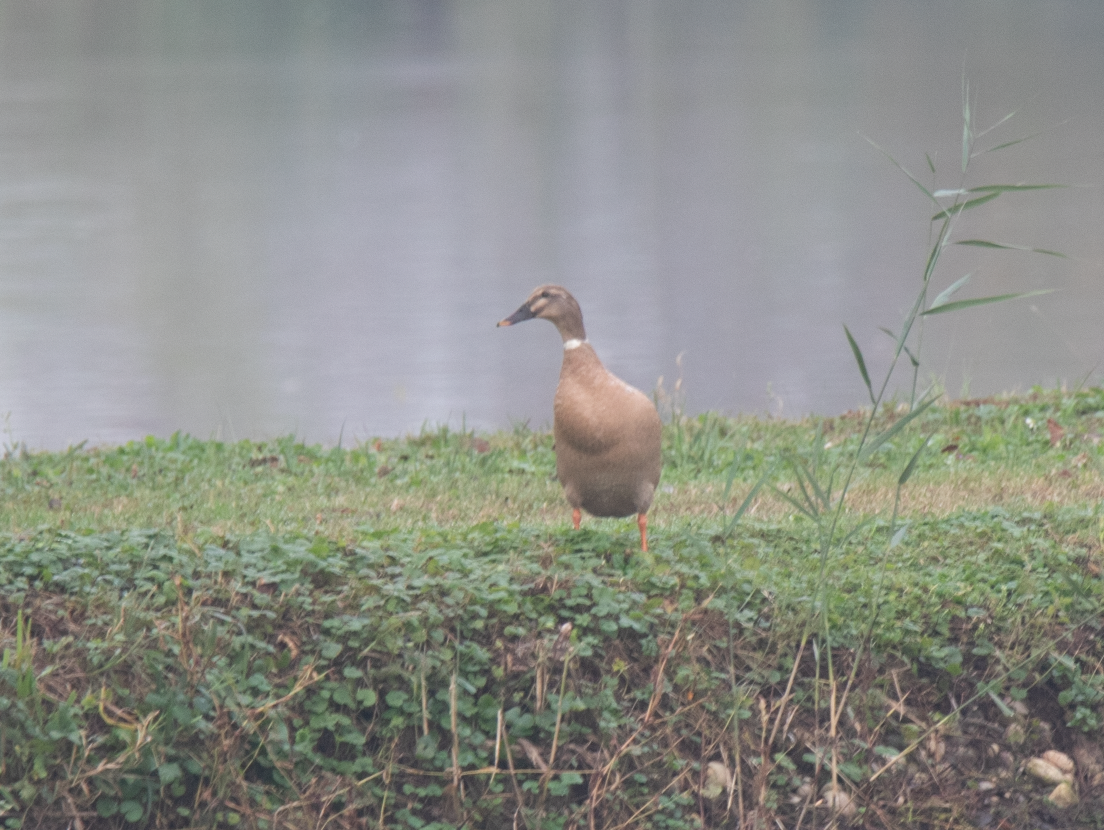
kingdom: Animalia
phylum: Chordata
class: Aves
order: Anseriformes
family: Anatidae
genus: Anas
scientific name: Anas platyrhynchos
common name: Mallard
